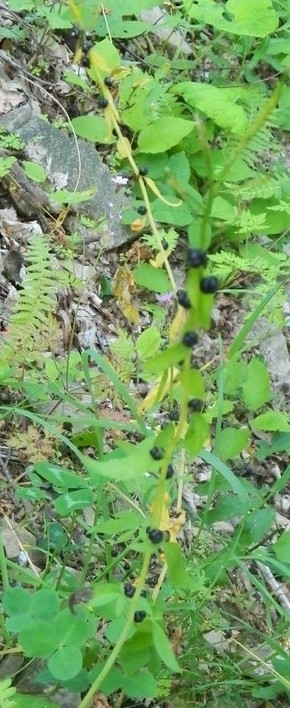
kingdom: Plantae
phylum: Tracheophyta
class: Magnoliopsida
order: Brassicales
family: Brassicaceae
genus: Cardamine
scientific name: Cardamine bulbifera
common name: Coralroot bittercress
